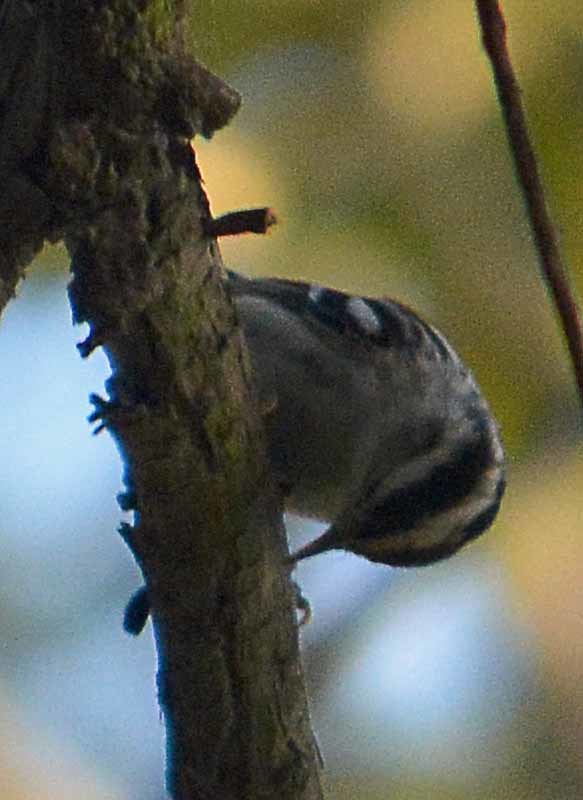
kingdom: Animalia
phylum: Chordata
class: Aves
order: Passeriformes
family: Parulidae
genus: Mniotilta
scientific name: Mniotilta varia
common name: Black-and-white warbler
